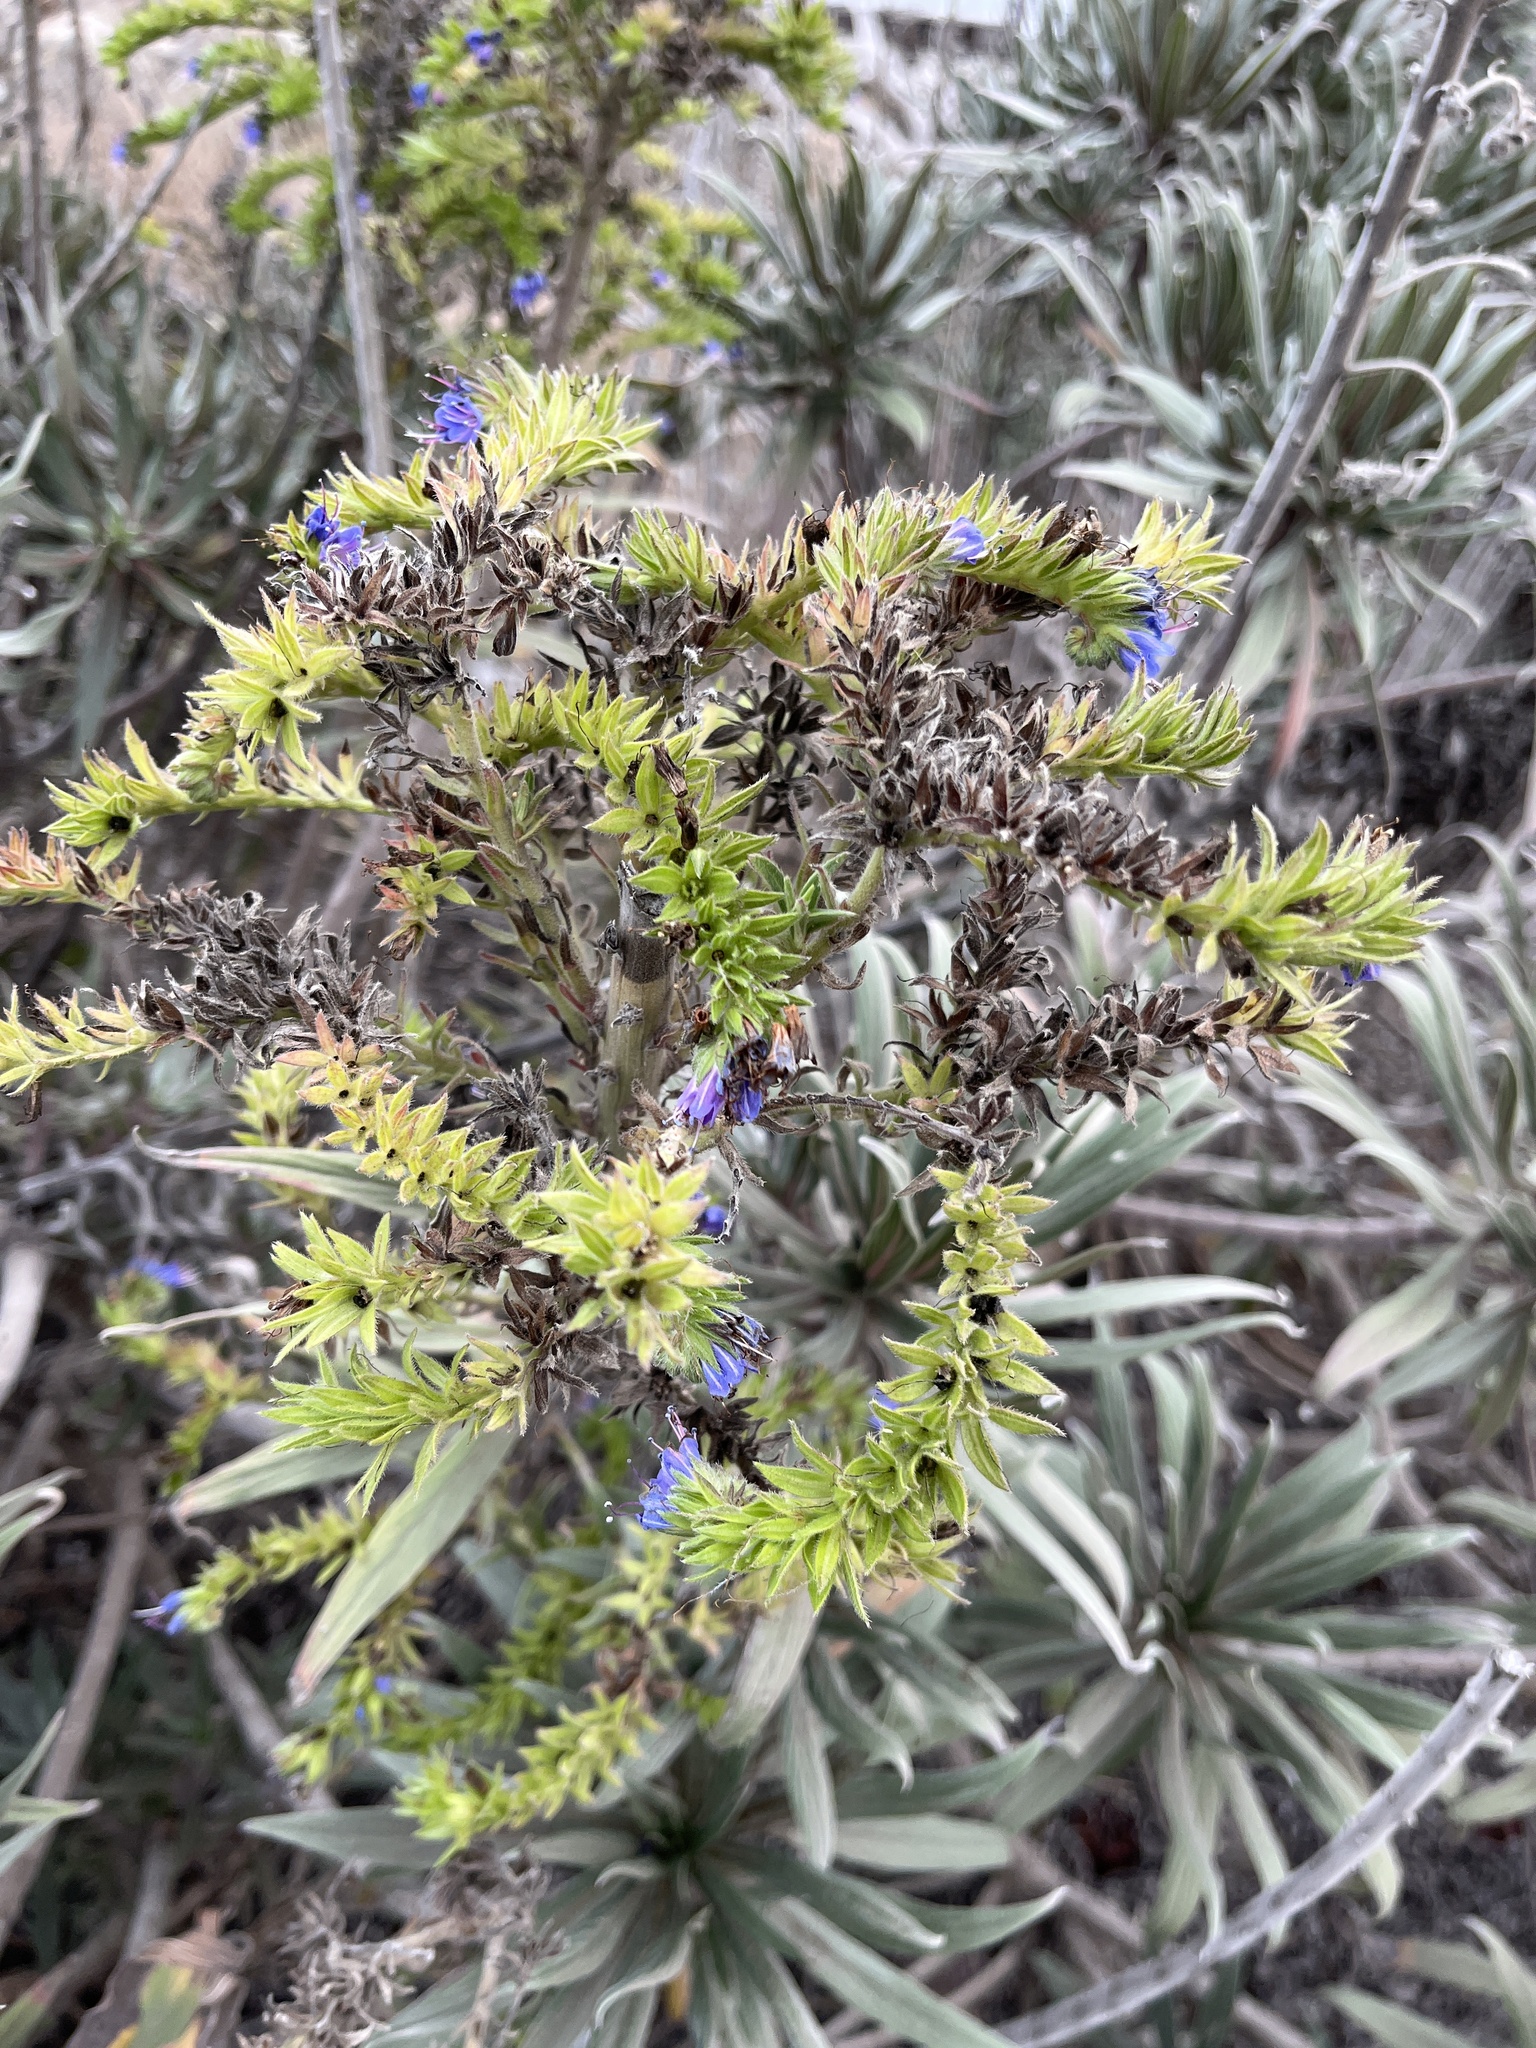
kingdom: Plantae
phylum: Tracheophyta
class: Magnoliopsida
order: Boraginales
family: Boraginaceae
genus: Echium
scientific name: Echium candicans
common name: Pride of madeira
